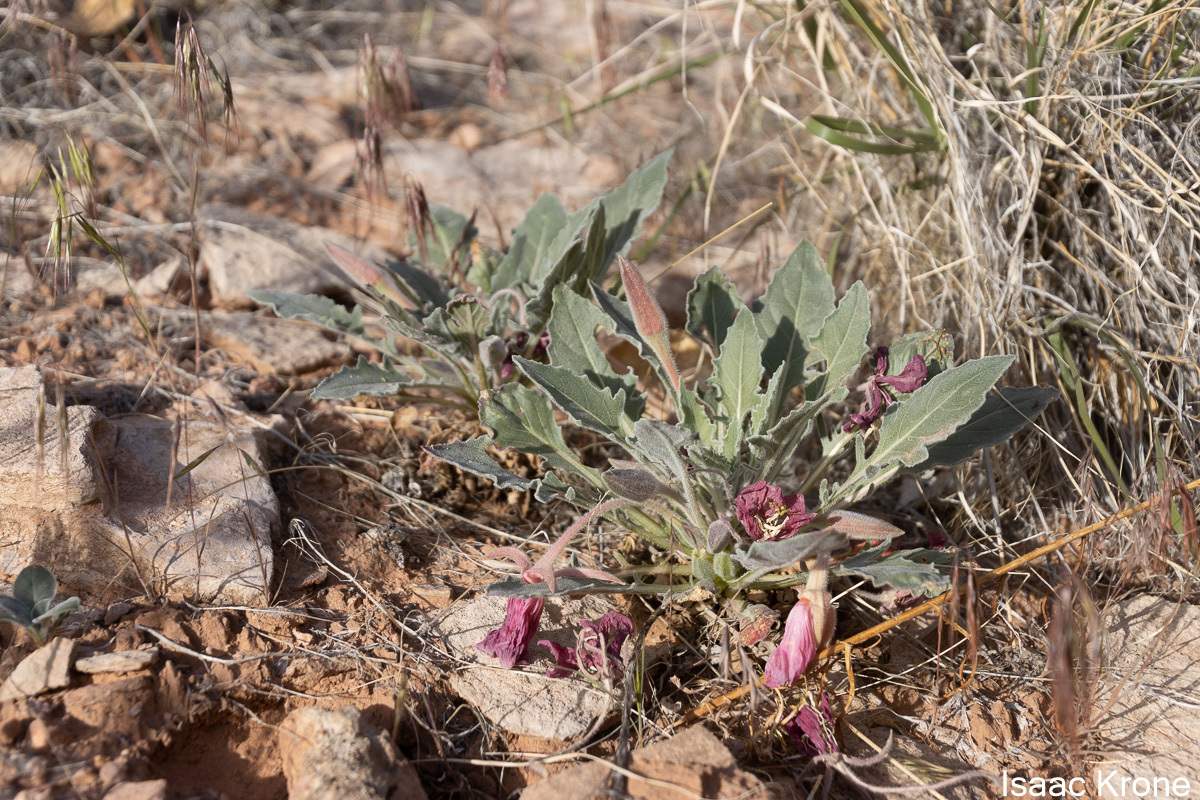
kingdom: Plantae
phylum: Tracheophyta
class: Magnoliopsida
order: Myrtales
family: Onagraceae
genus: Oenothera
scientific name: Oenothera cespitosa
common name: Tufted evening-primrose
